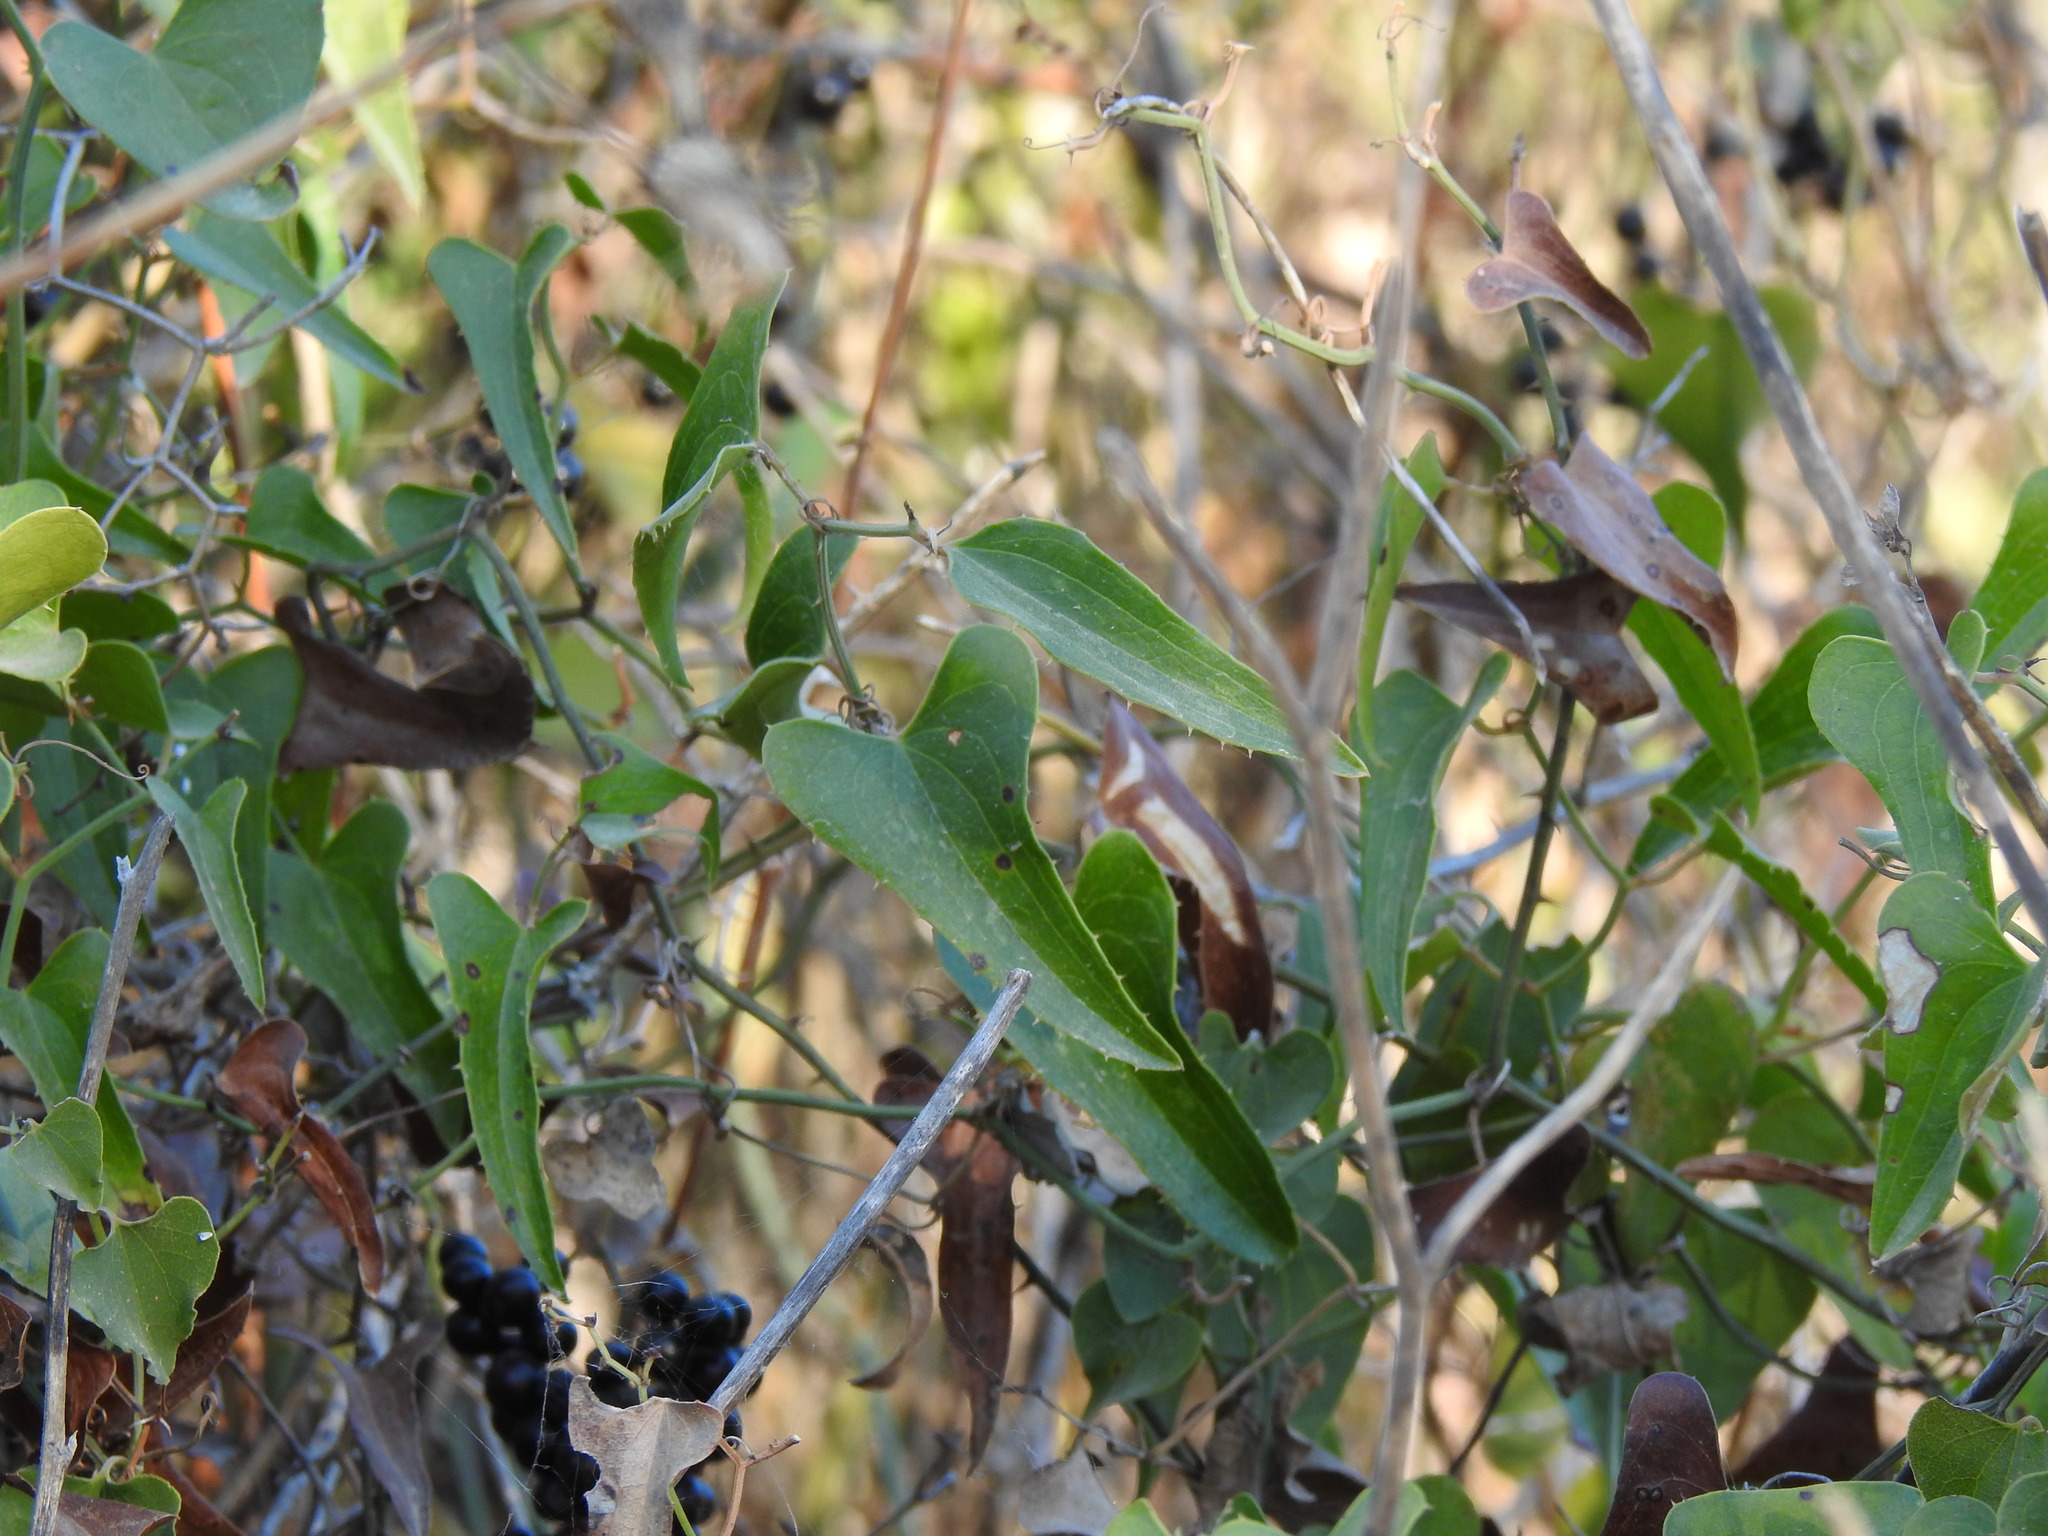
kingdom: Plantae
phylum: Tracheophyta
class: Liliopsida
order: Liliales
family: Smilacaceae
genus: Smilax
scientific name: Smilax aspera
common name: Common smilax
